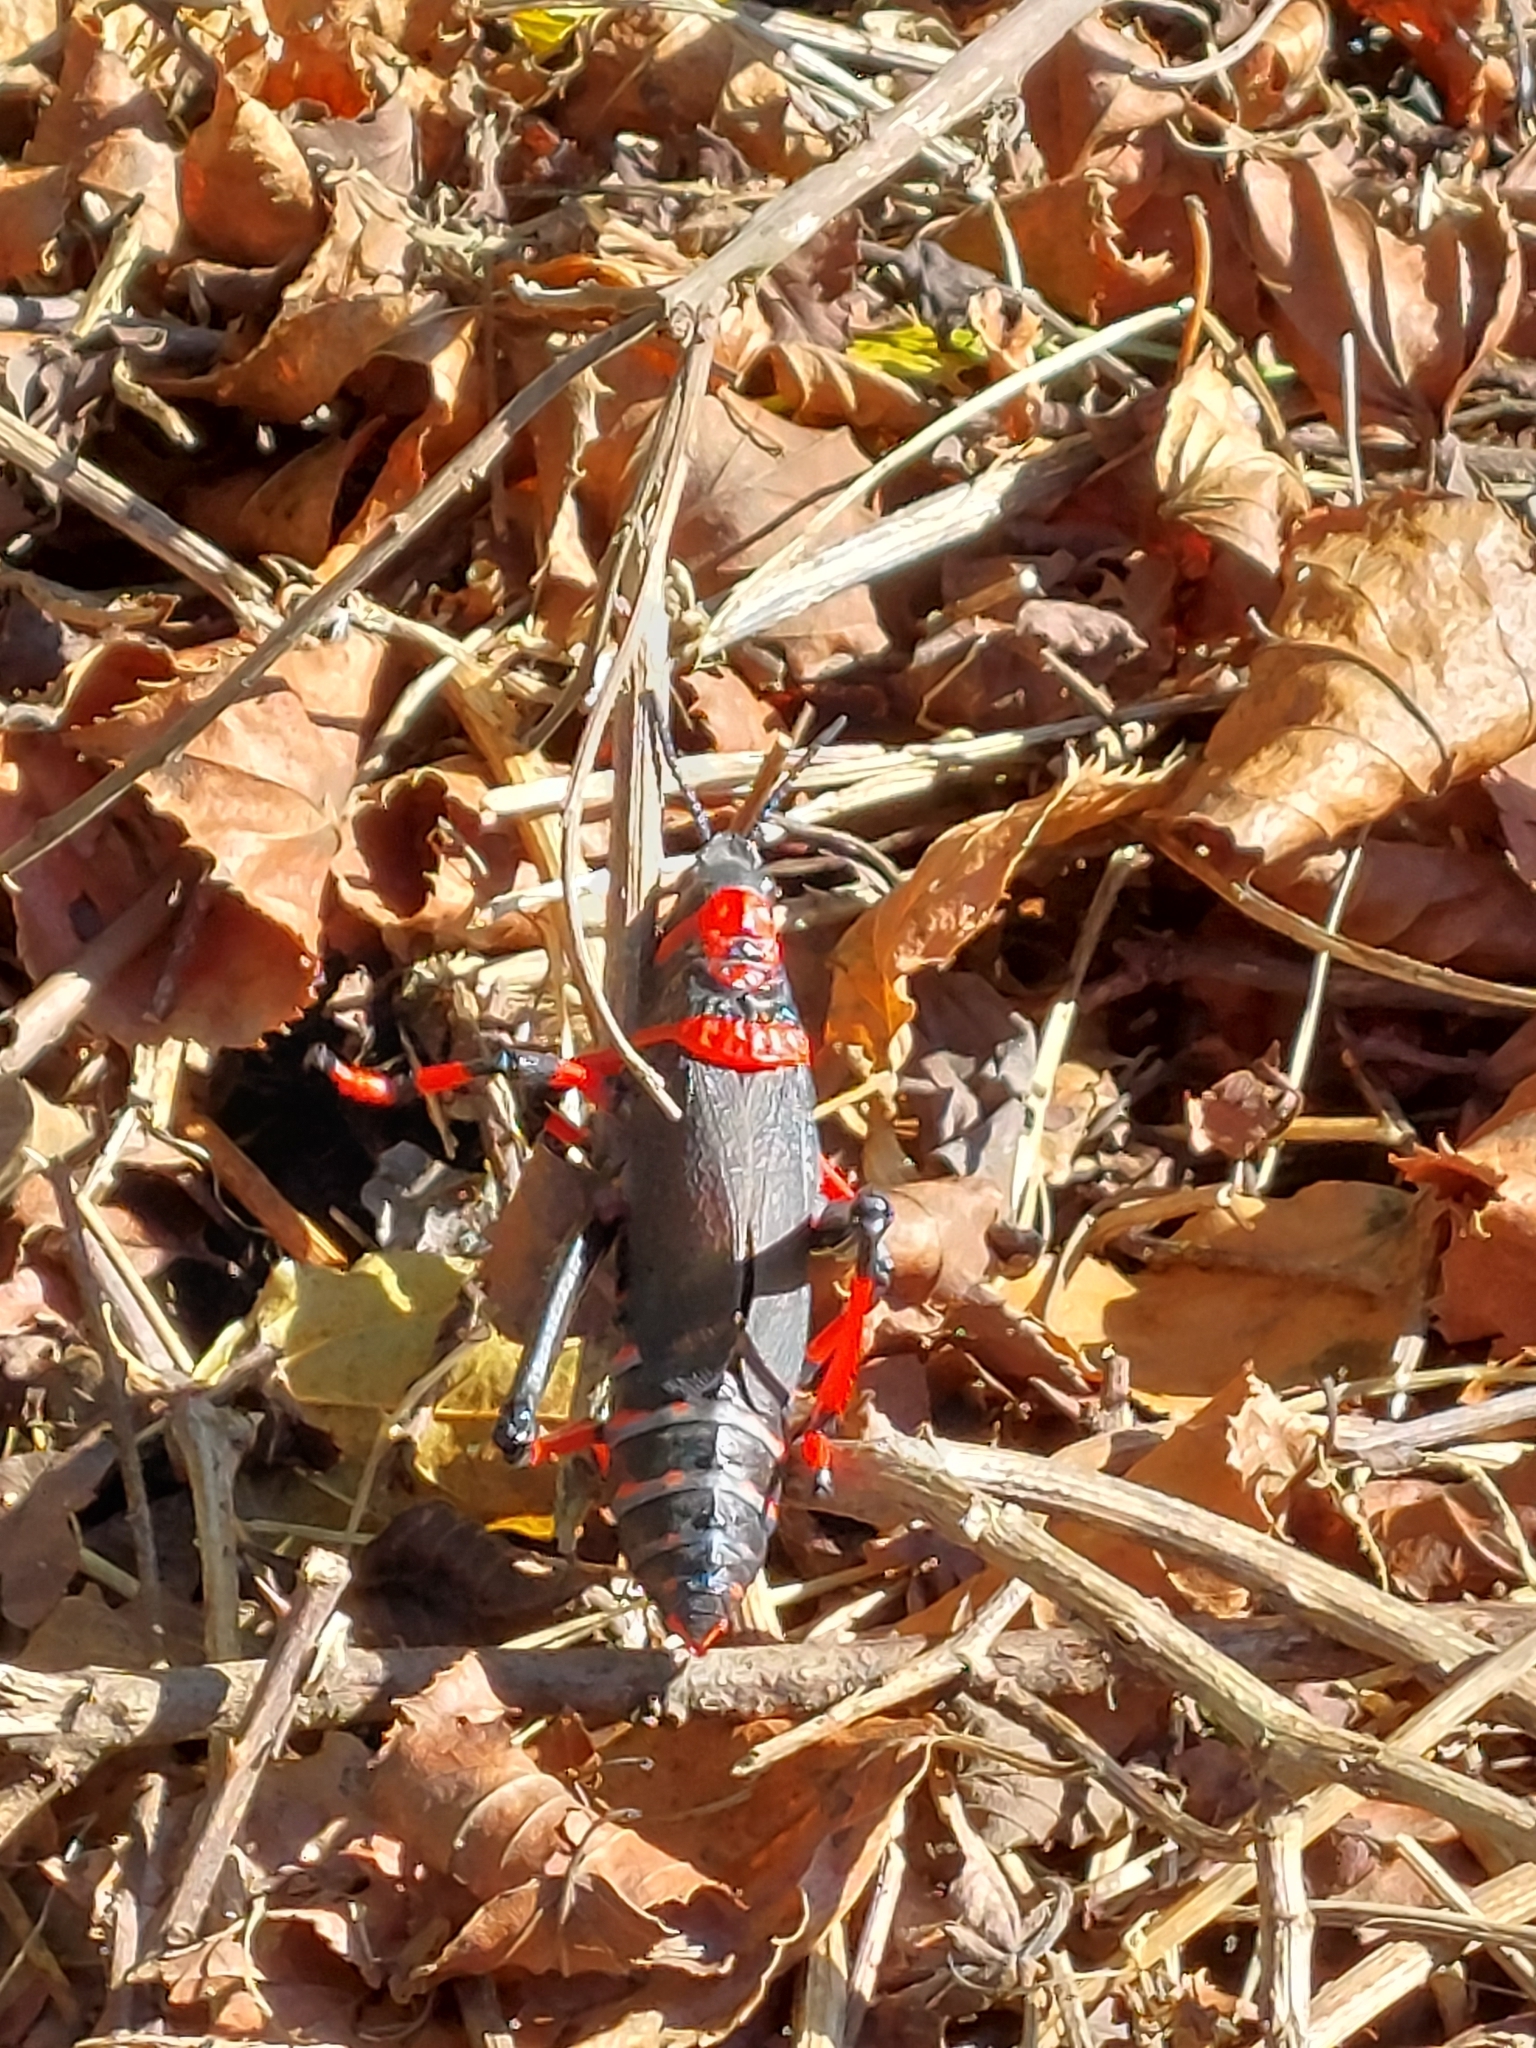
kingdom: Animalia
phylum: Arthropoda
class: Insecta
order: Orthoptera
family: Pyrgomorphidae
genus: Dictyophorus
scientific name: Dictyophorus spumans
